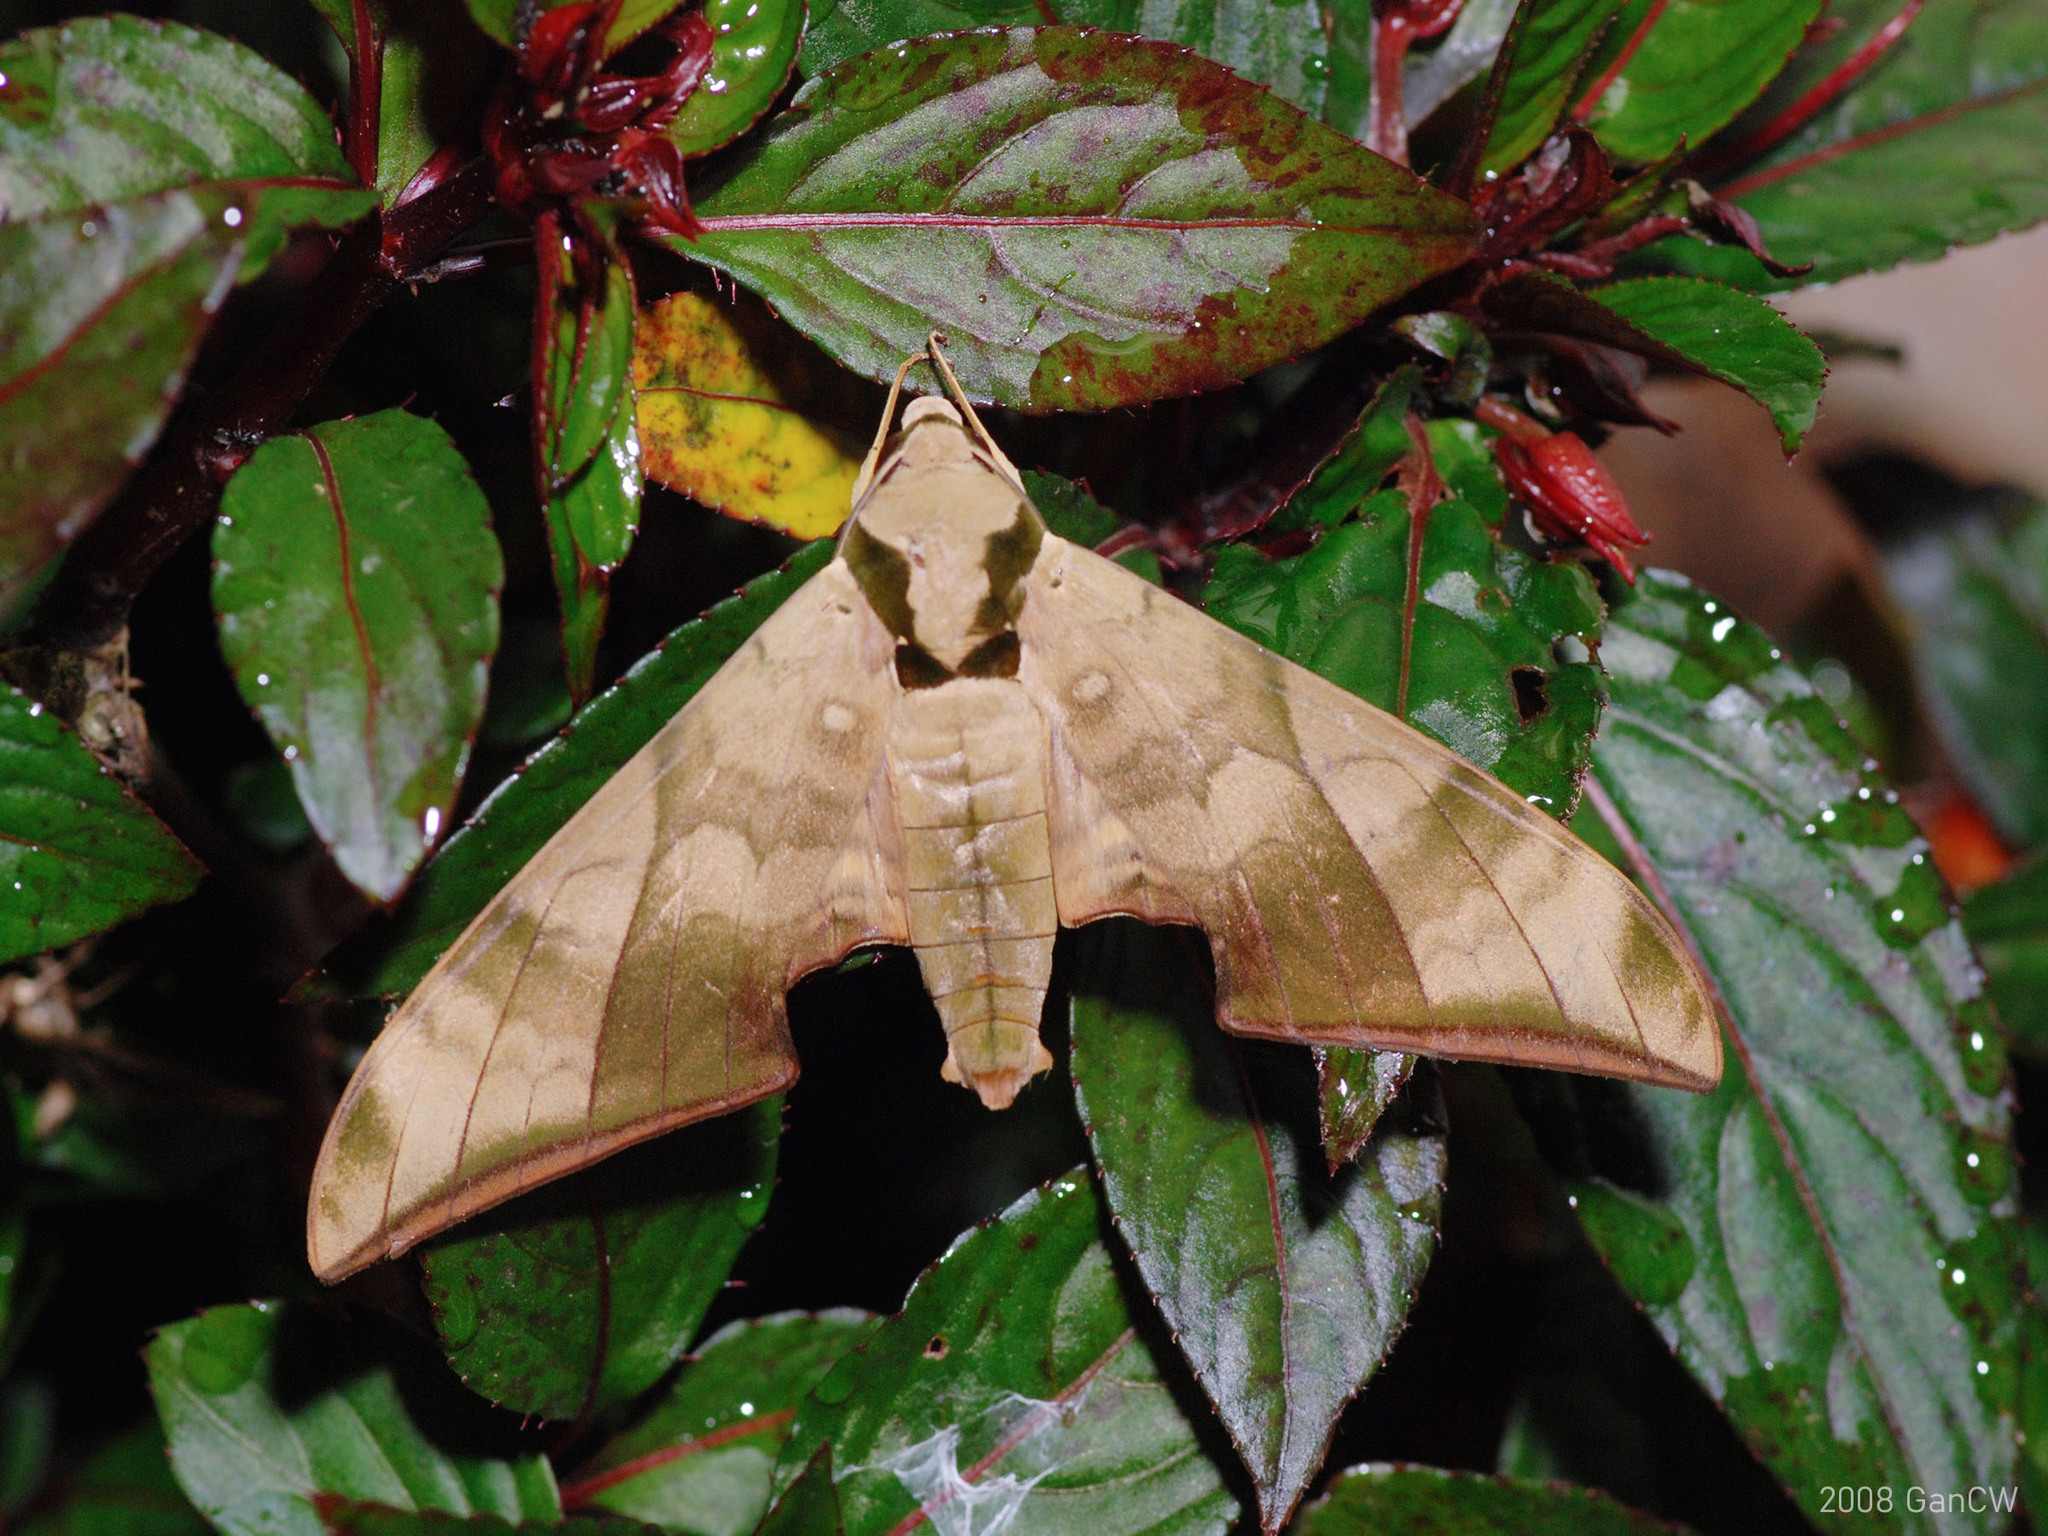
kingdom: Animalia
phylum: Arthropoda
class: Insecta
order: Lepidoptera
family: Sphingidae
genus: Ambulyx
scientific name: Ambulyx tattina
